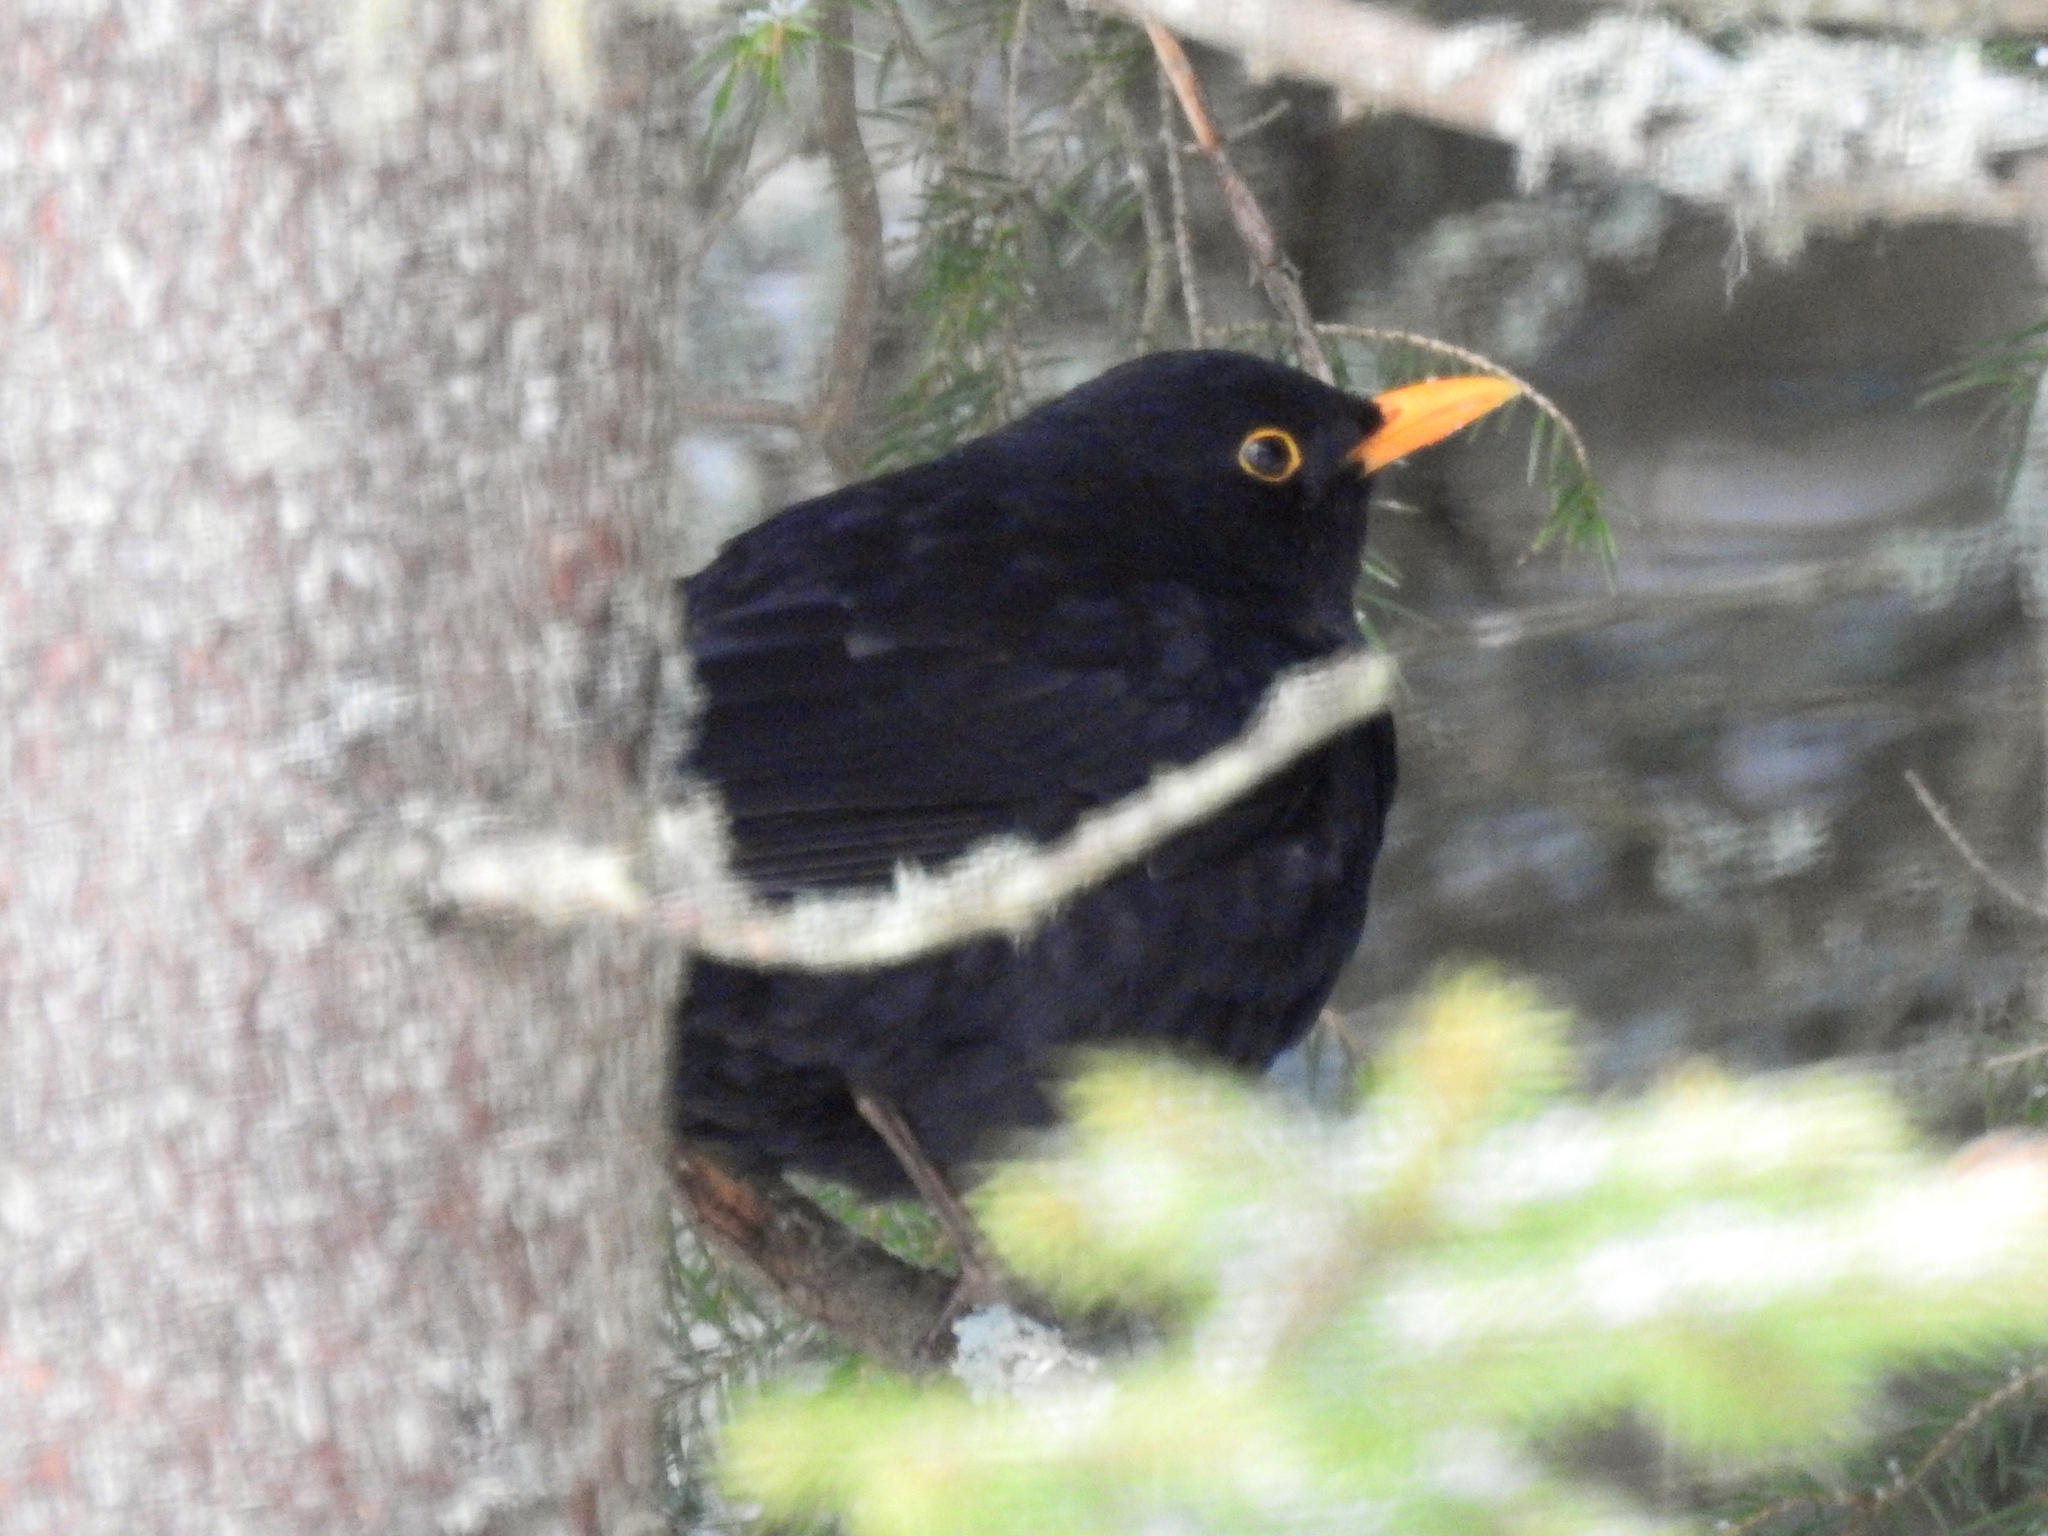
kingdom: Animalia
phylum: Chordata
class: Aves
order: Passeriformes
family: Turdidae
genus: Turdus
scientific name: Turdus merula
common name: Common blackbird
